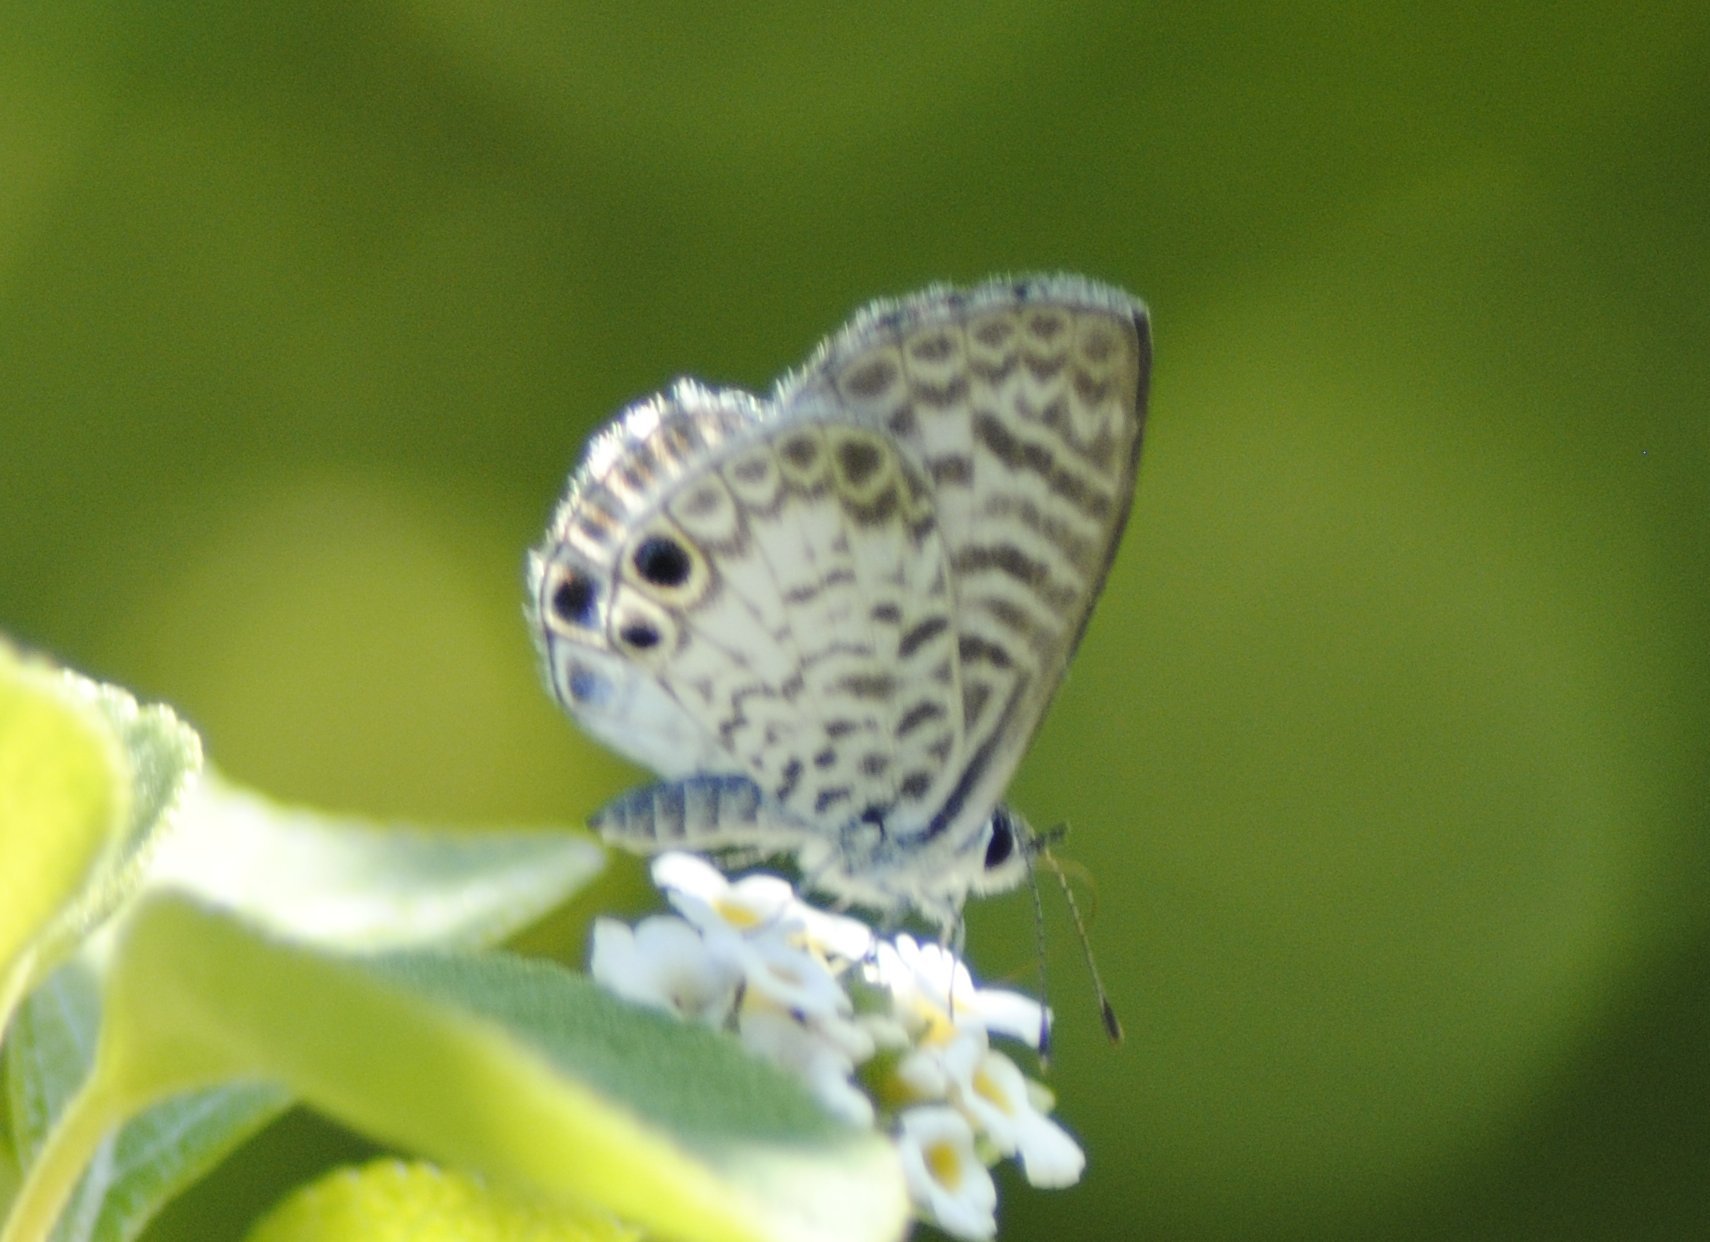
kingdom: Animalia
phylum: Arthropoda
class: Insecta
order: Lepidoptera
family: Lycaenidae
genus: Leptotes
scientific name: Leptotes cassius
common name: Cassius blue
